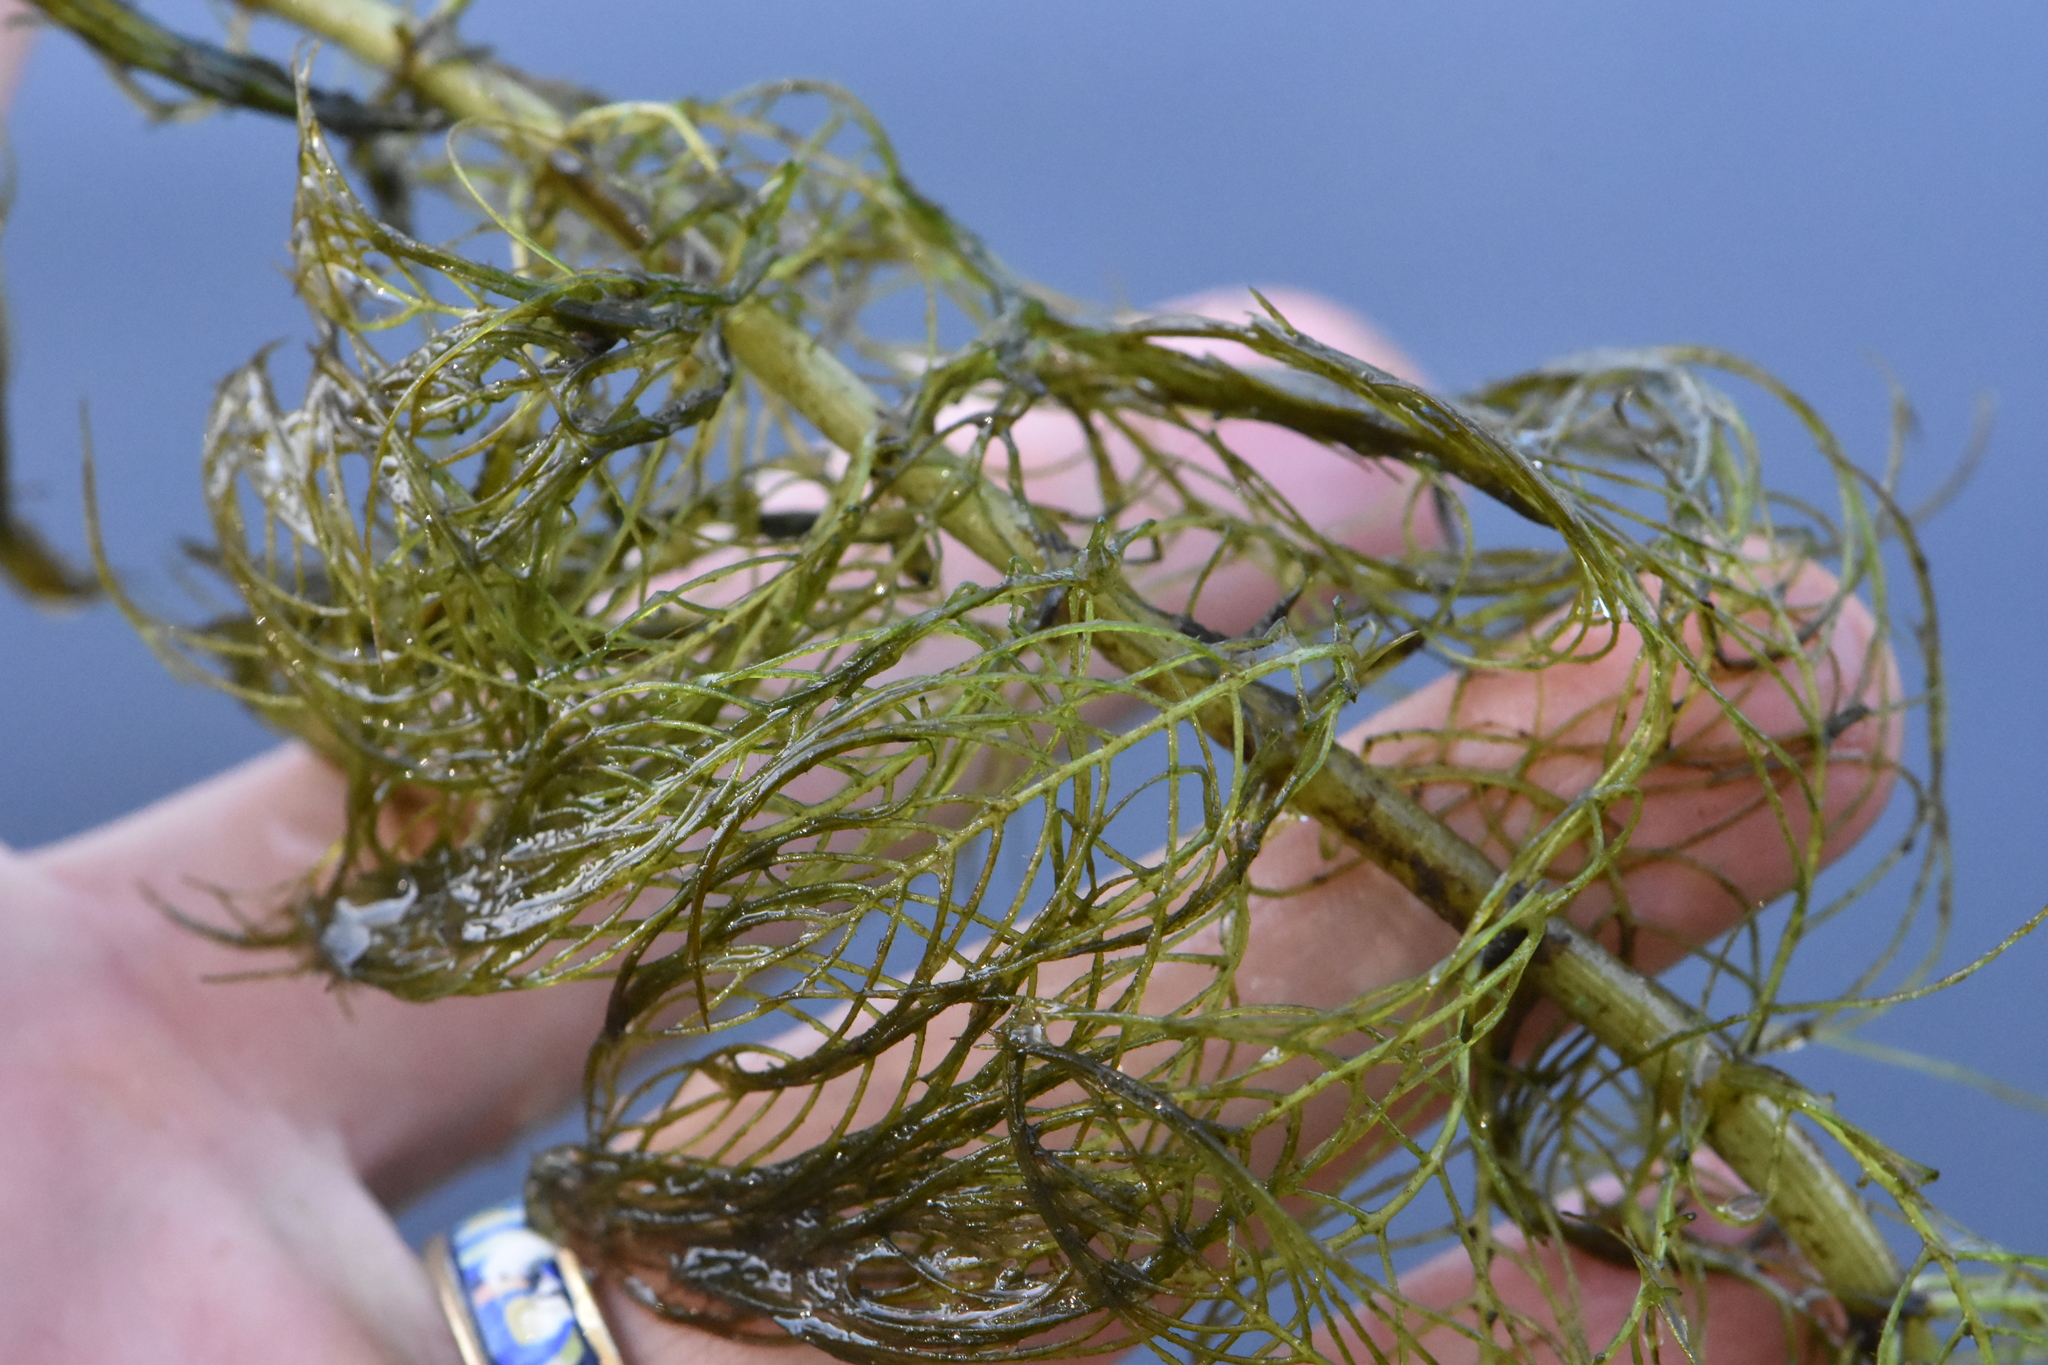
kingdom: Plantae
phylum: Tracheophyta
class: Magnoliopsida
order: Saxifragales
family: Haloragaceae
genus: Myriophyllum
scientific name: Myriophyllum verticillatum
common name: Whorled water-milfoil
